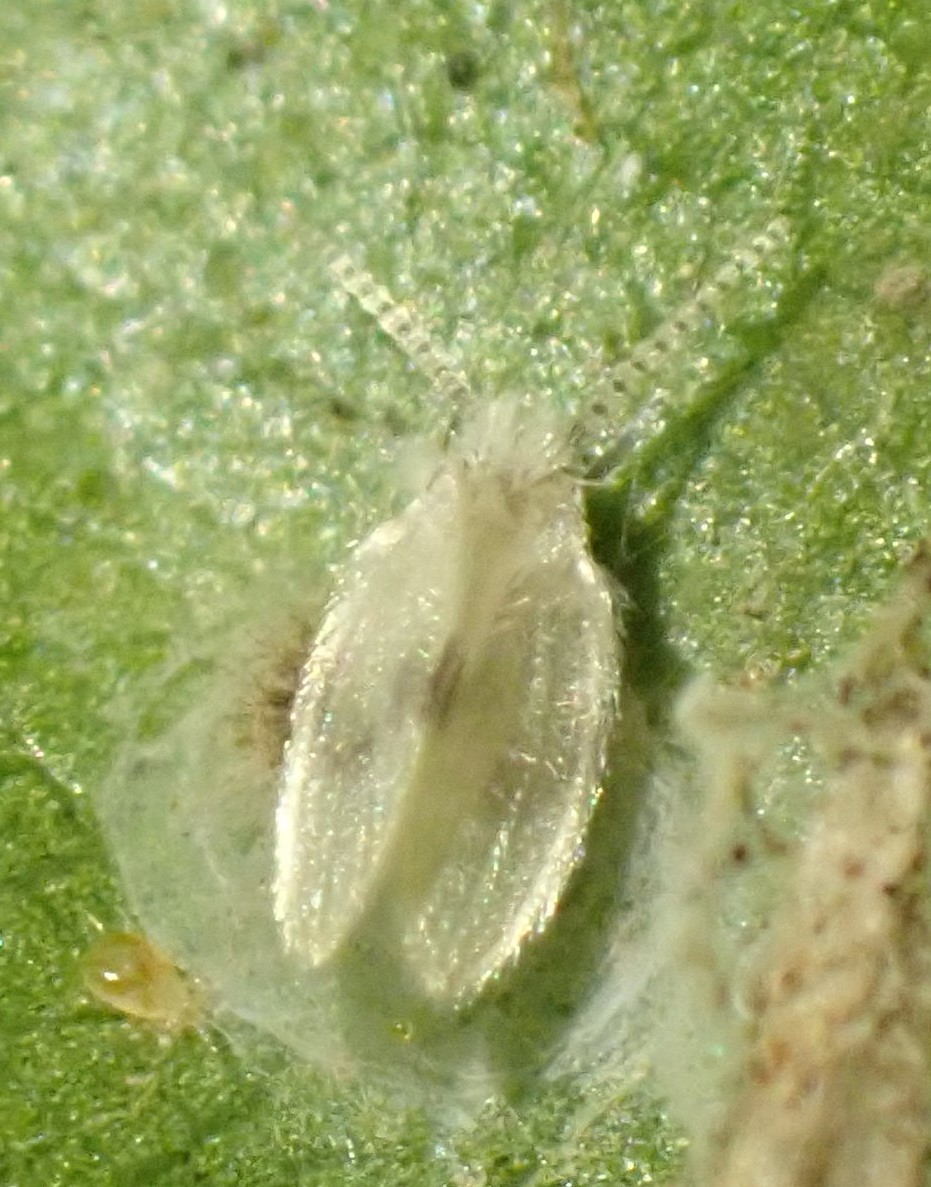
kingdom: Animalia
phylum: Arthropoda
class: Insecta
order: Diptera
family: Psychodidae
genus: Psychoda
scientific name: Psychoda sigma
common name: Moth fly
